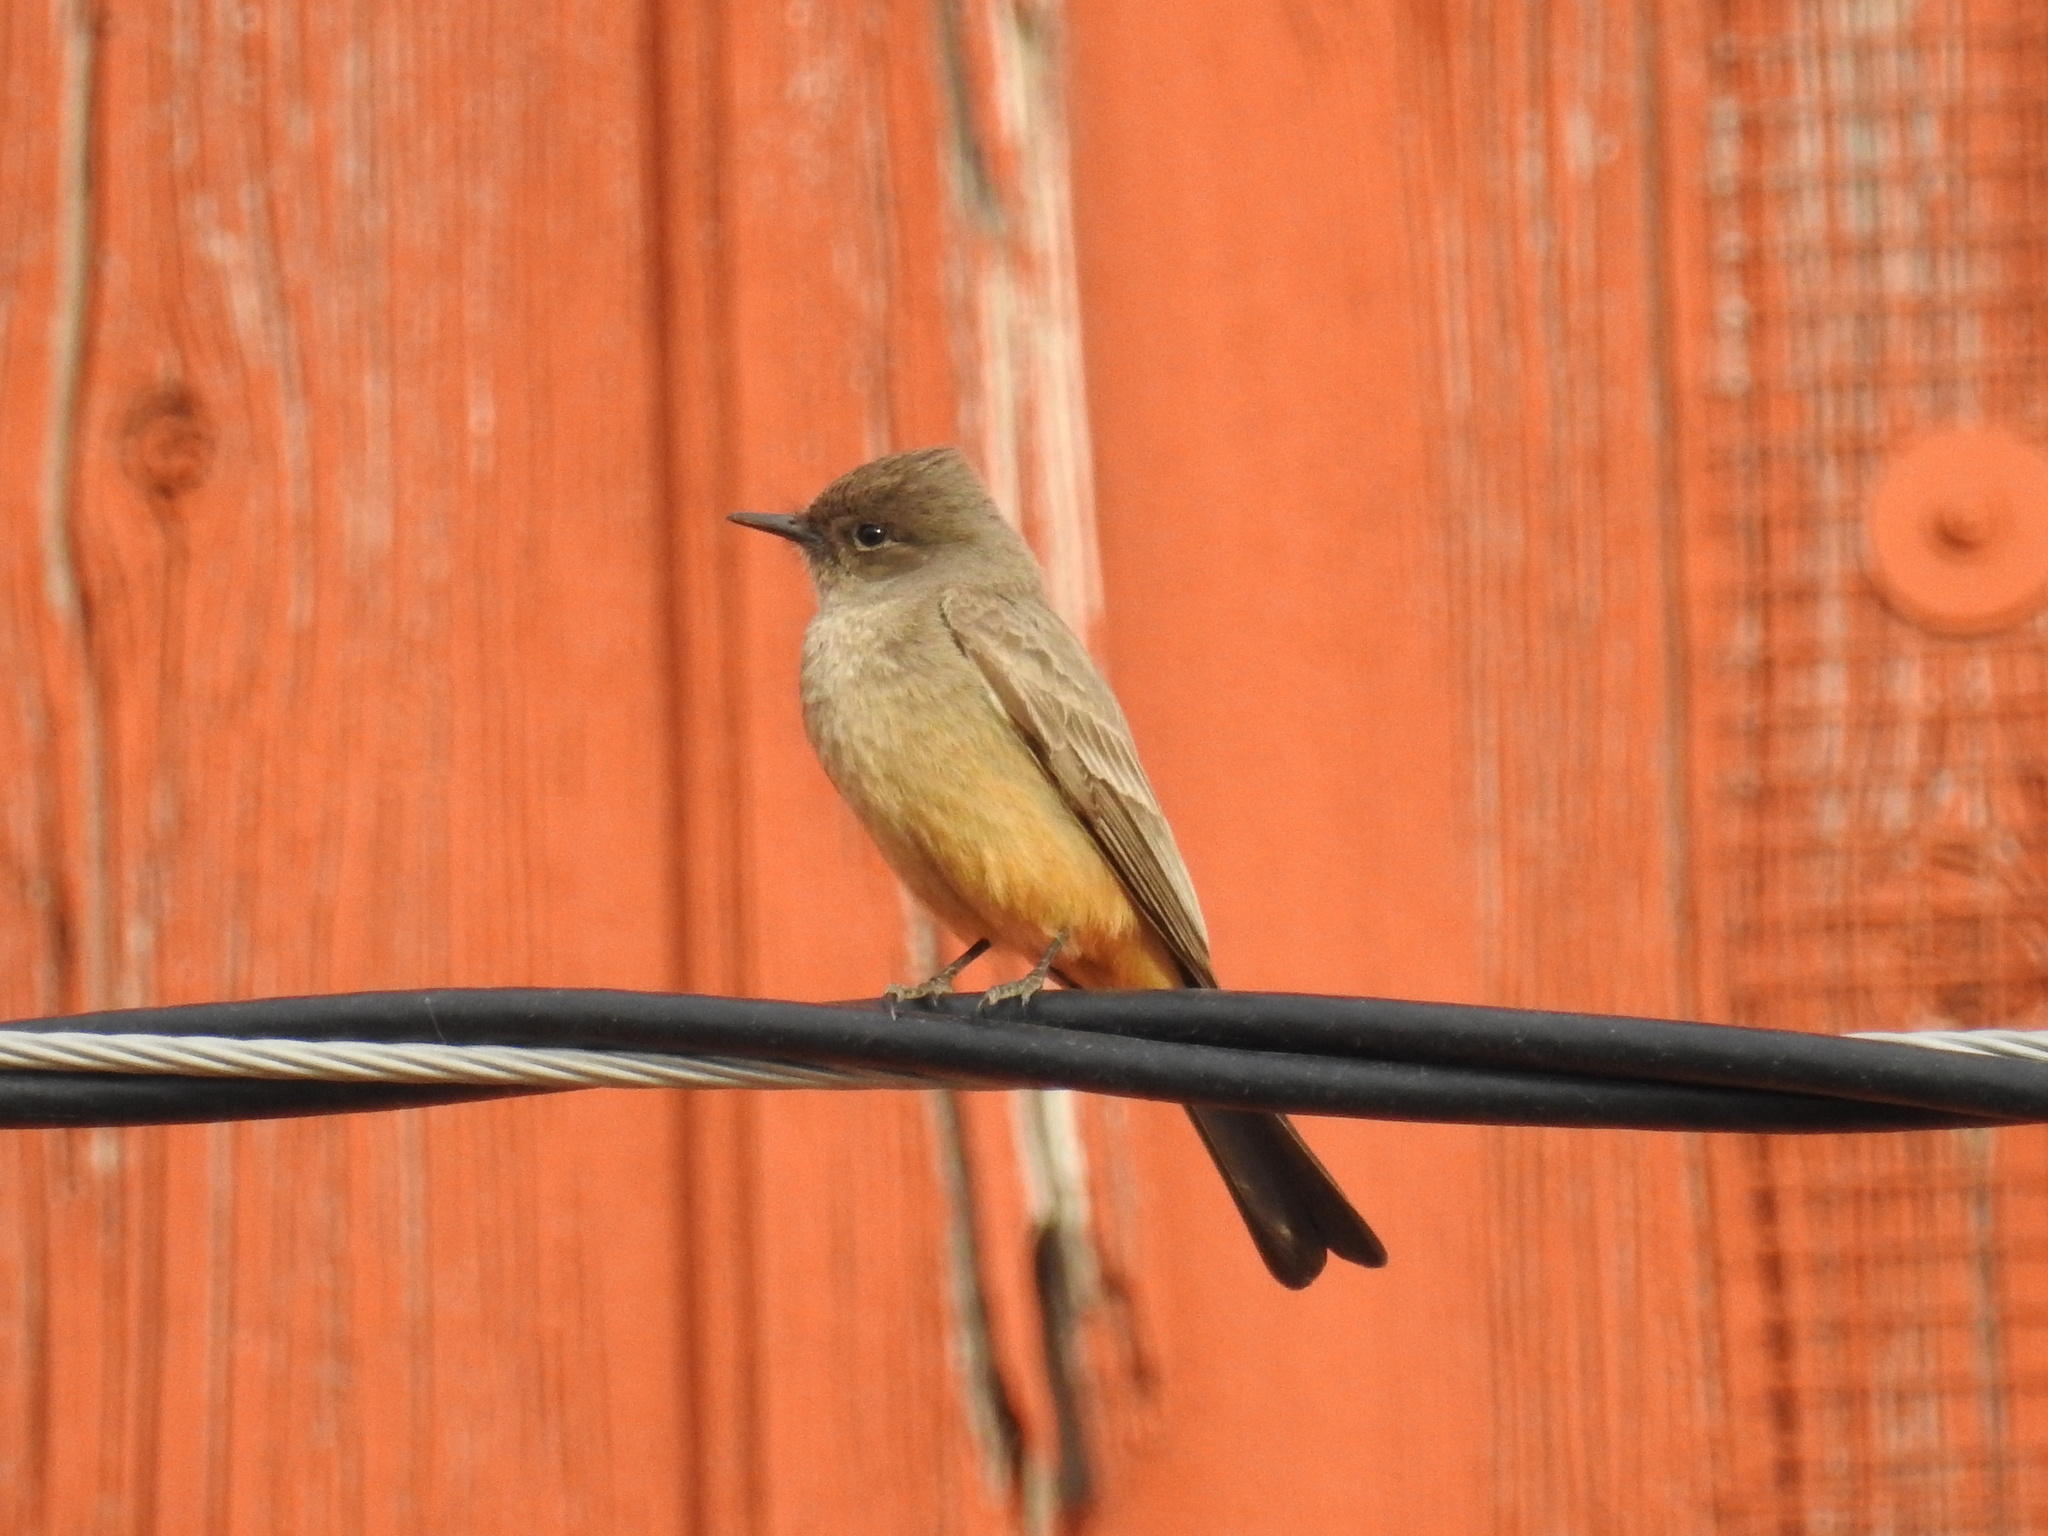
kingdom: Animalia
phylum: Chordata
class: Aves
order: Passeriformes
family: Tyrannidae
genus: Sayornis
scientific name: Sayornis saya
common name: Say's phoebe
